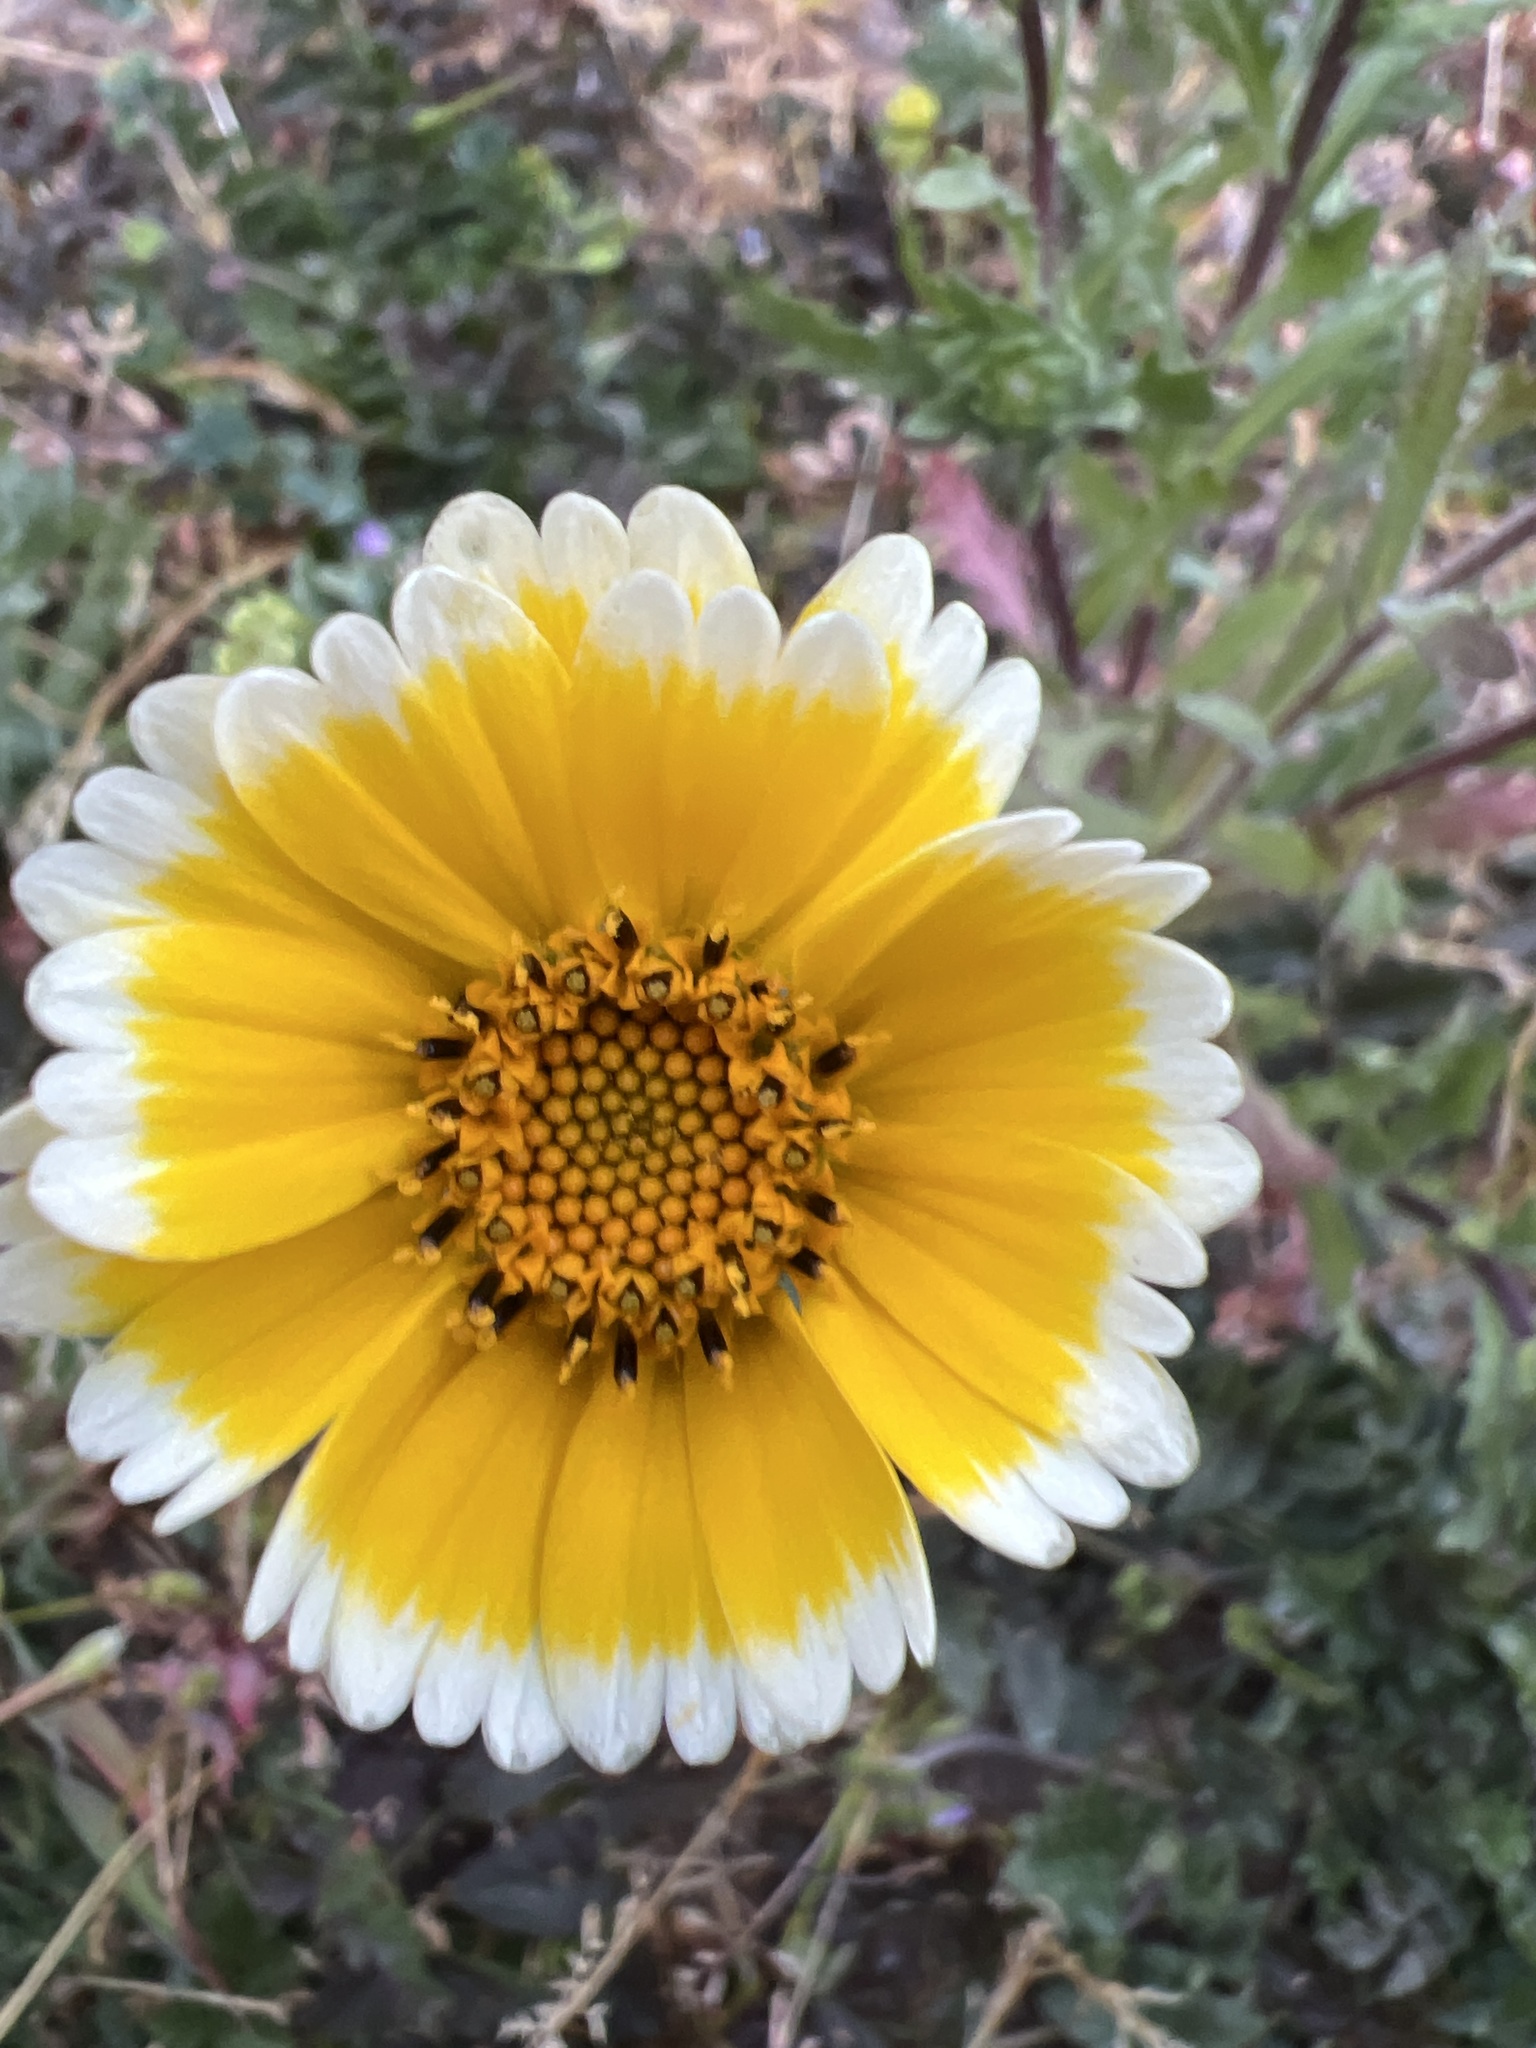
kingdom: Plantae
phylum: Tracheophyta
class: Magnoliopsida
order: Asterales
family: Asteraceae
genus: Layia
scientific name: Layia platyglossa
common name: Tidy-tips
